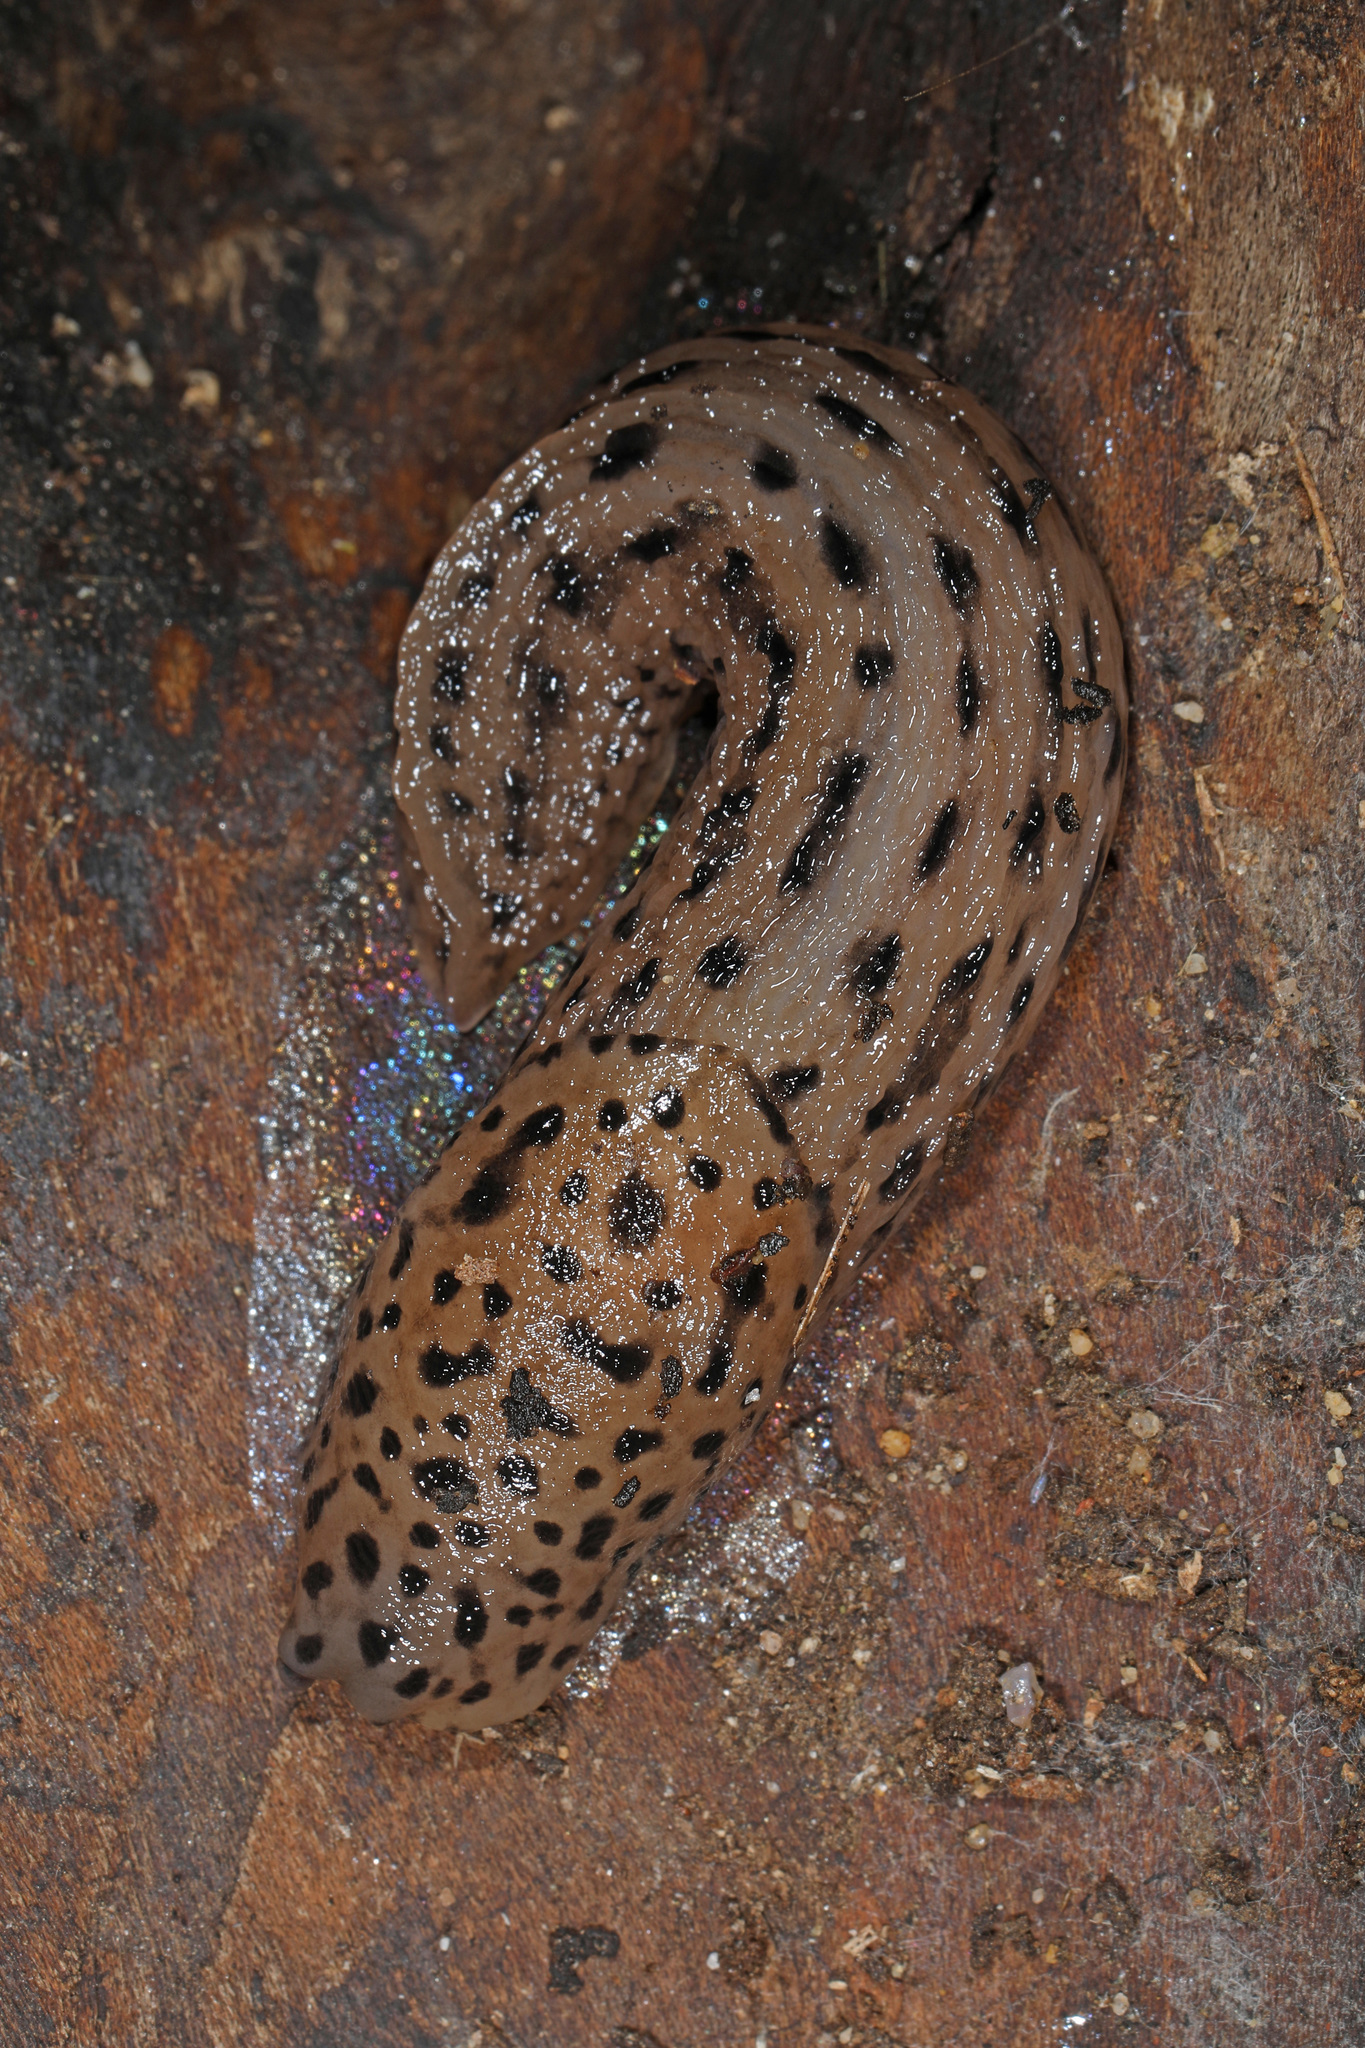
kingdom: Animalia
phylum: Mollusca
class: Gastropoda
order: Stylommatophora
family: Limacidae
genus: Limax
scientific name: Limax maximus
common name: Great grey slug
